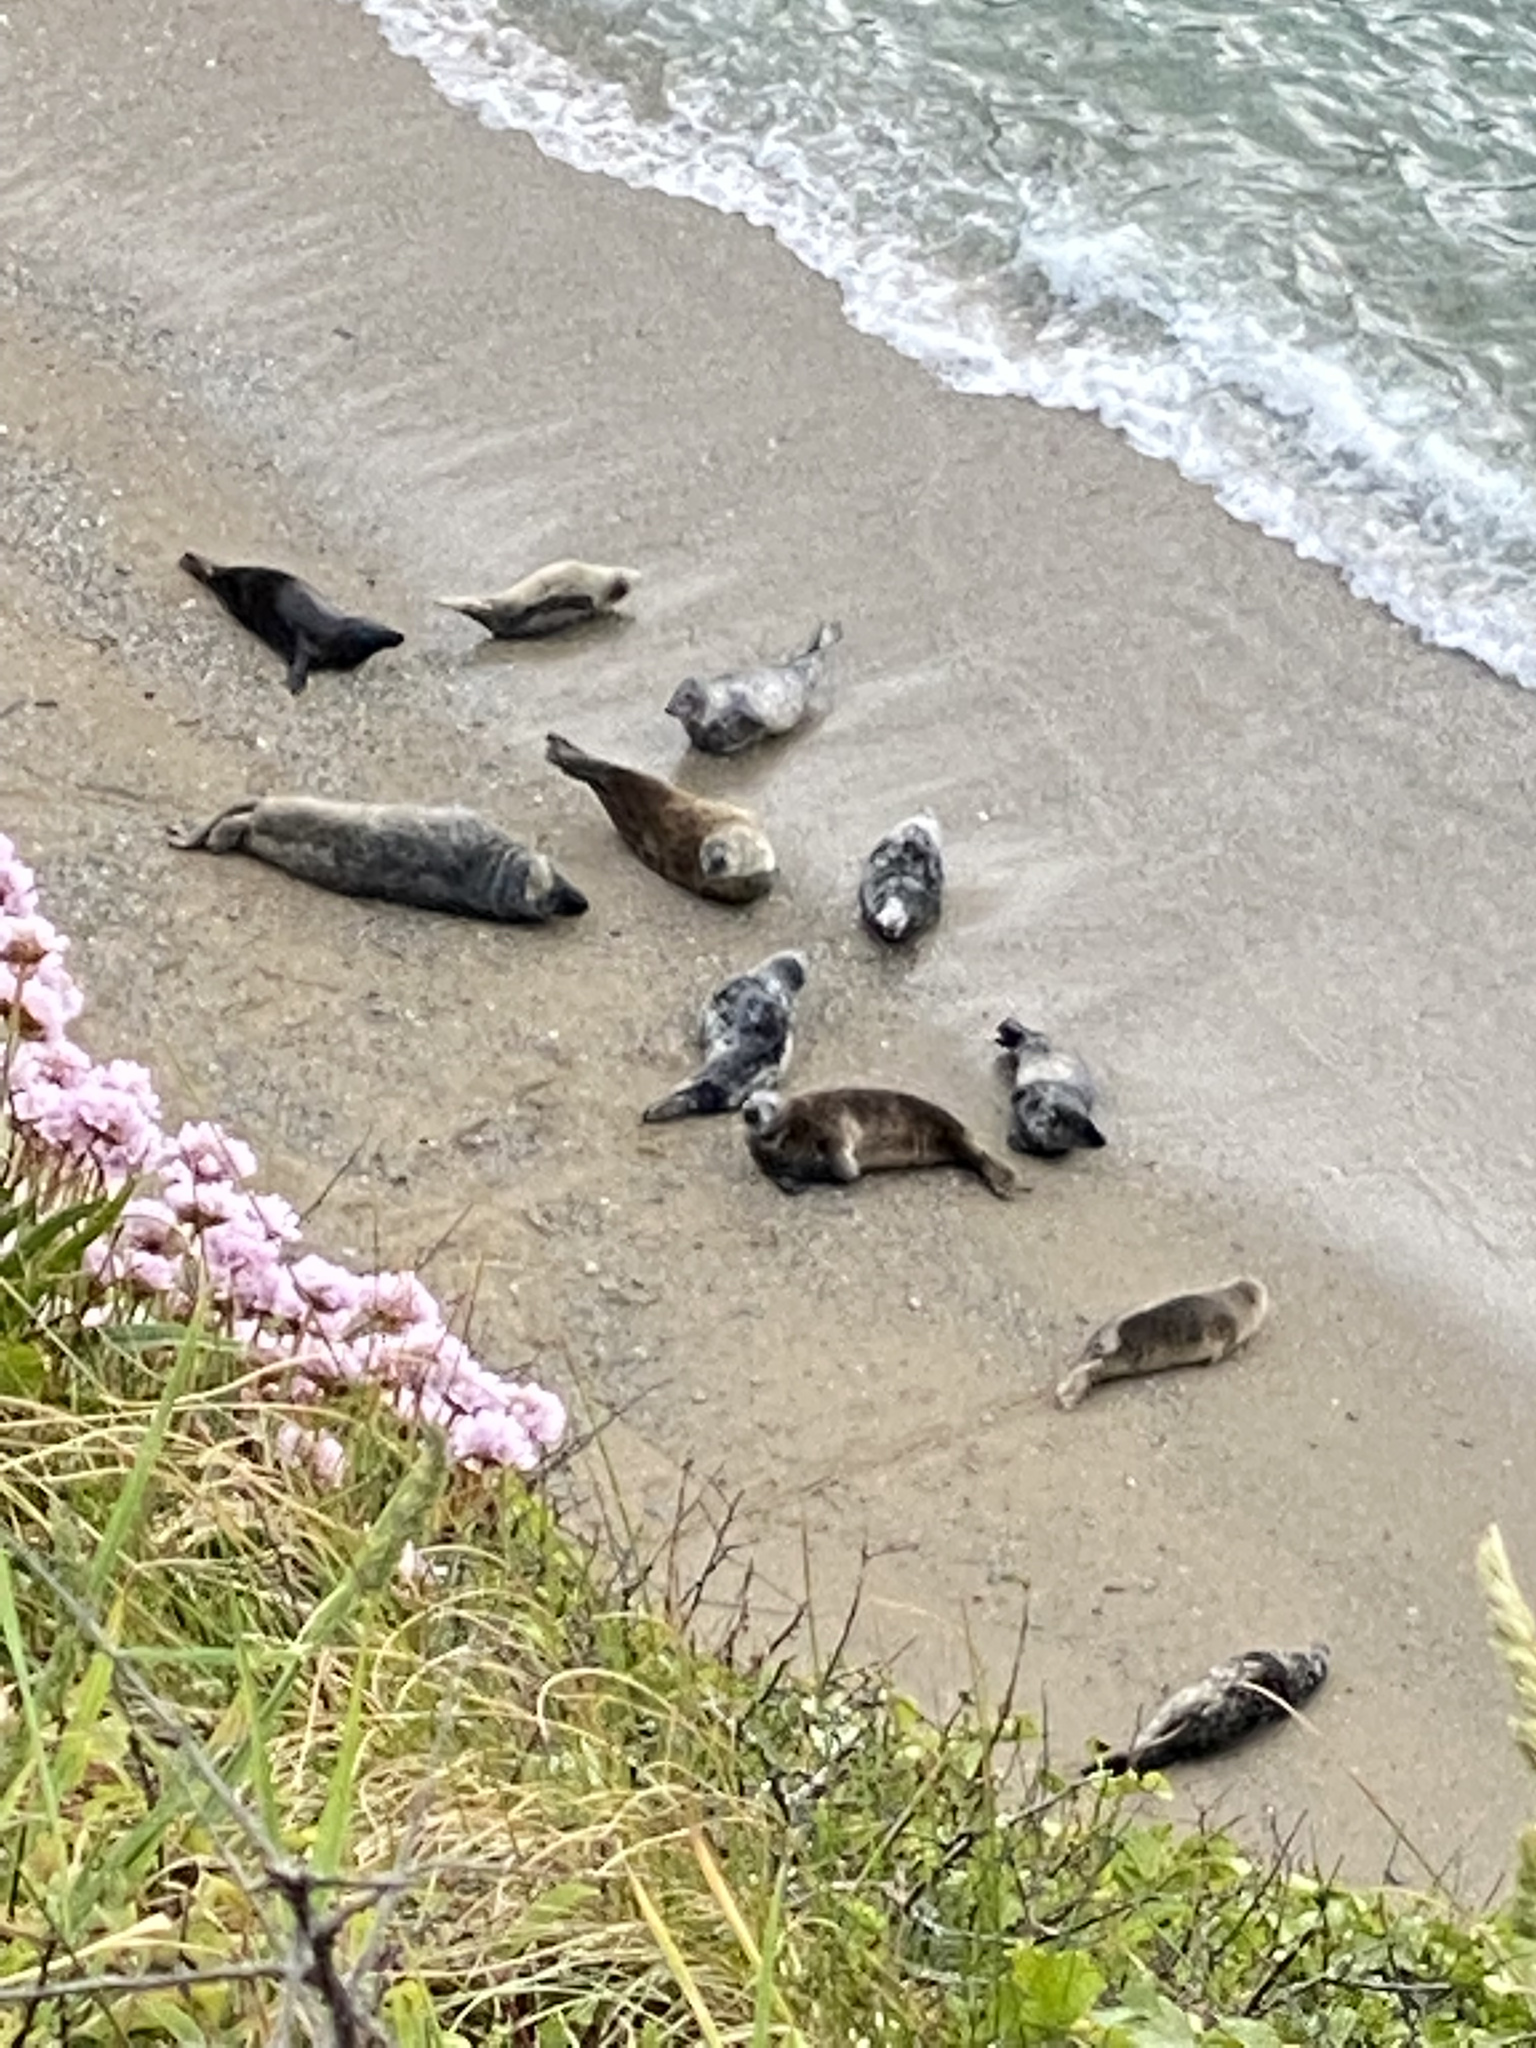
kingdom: Animalia
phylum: Chordata
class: Mammalia
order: Carnivora
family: Phocidae
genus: Halichoerus
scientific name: Halichoerus grypus
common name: Grey seal
